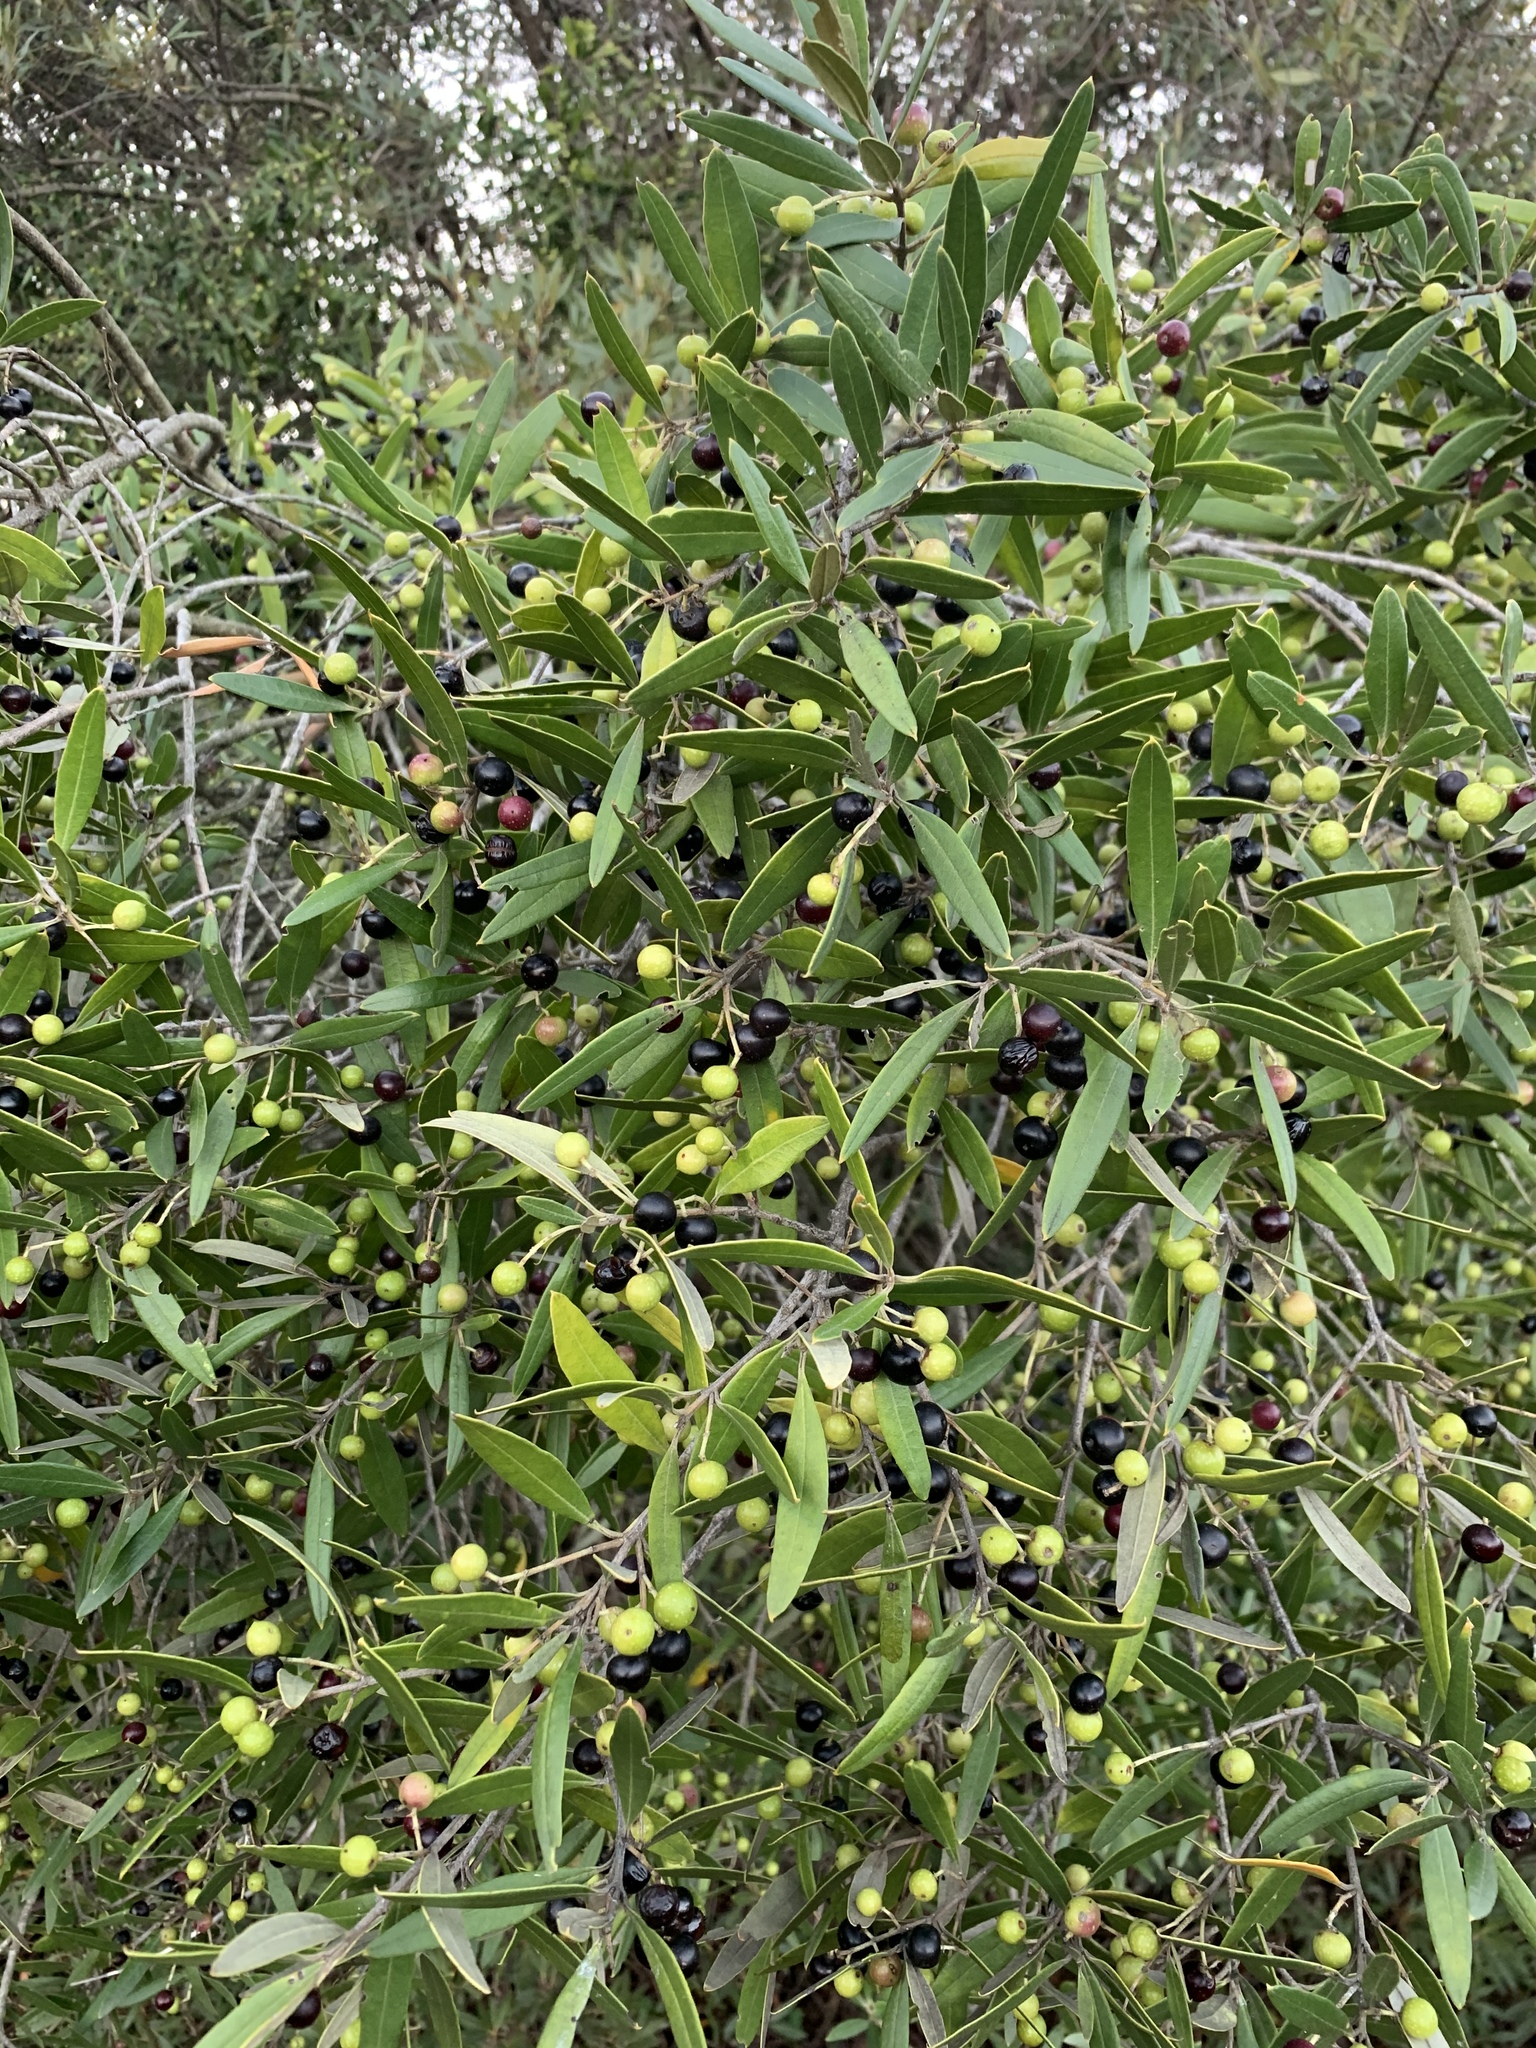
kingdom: Plantae
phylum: Tracheophyta
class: Magnoliopsida
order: Lamiales
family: Oleaceae
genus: Olea
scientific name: Olea europaea
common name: Olive
